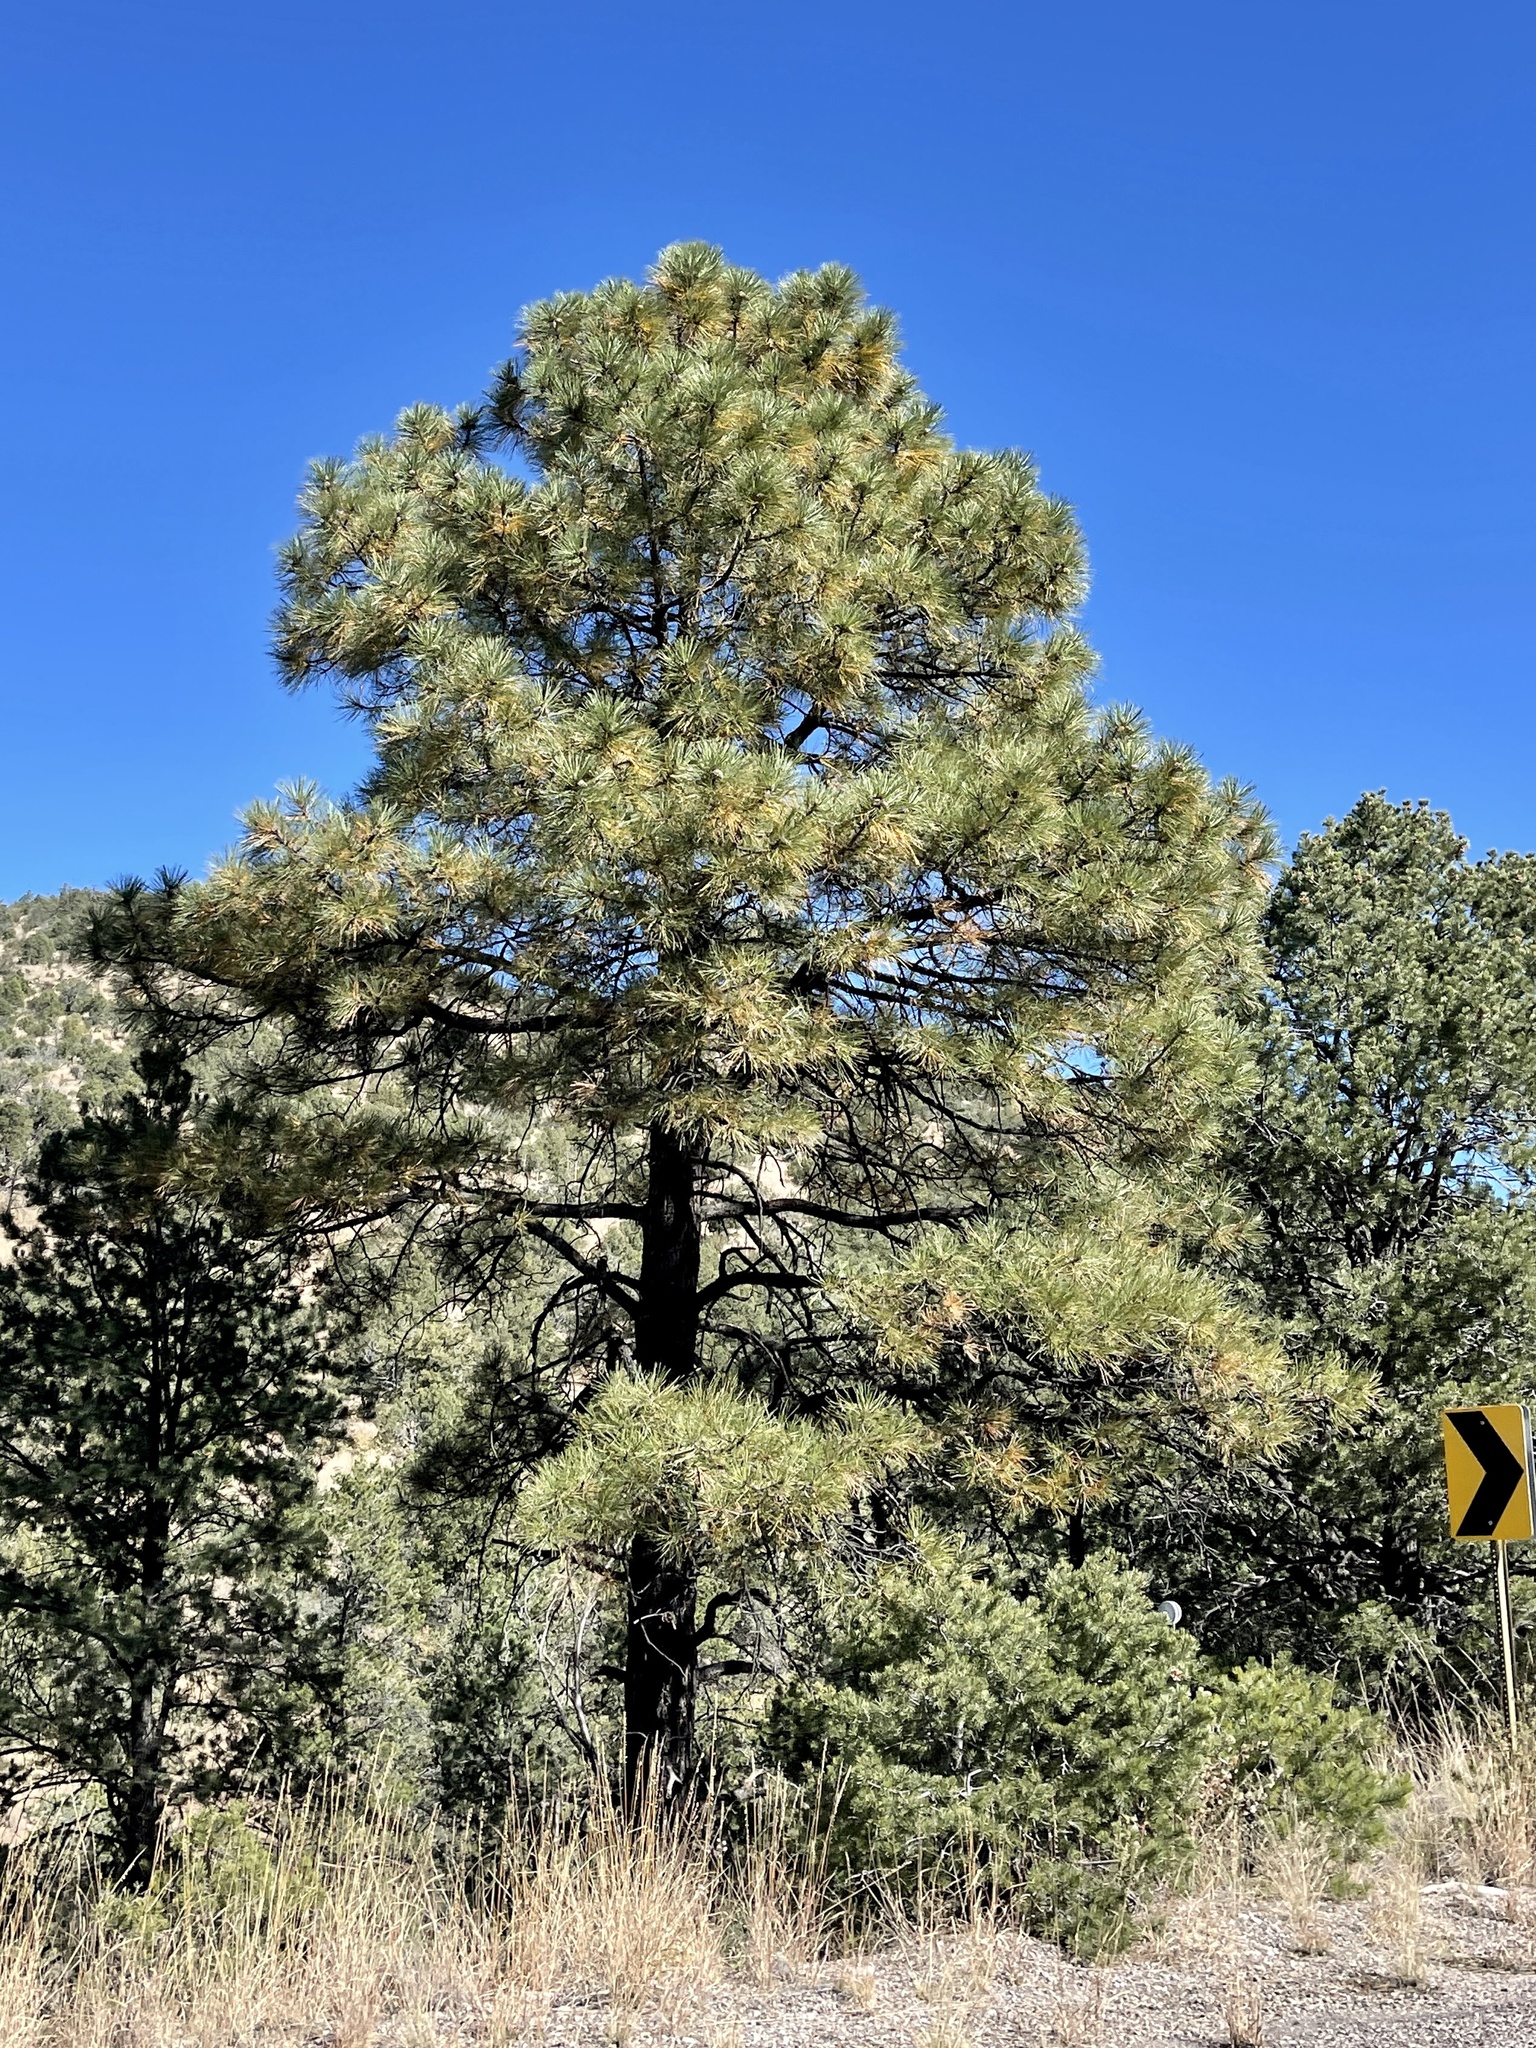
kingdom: Plantae
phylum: Tracheophyta
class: Pinopsida
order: Pinales
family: Pinaceae
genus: Pinus
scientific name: Pinus ponderosa
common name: Western yellow-pine
